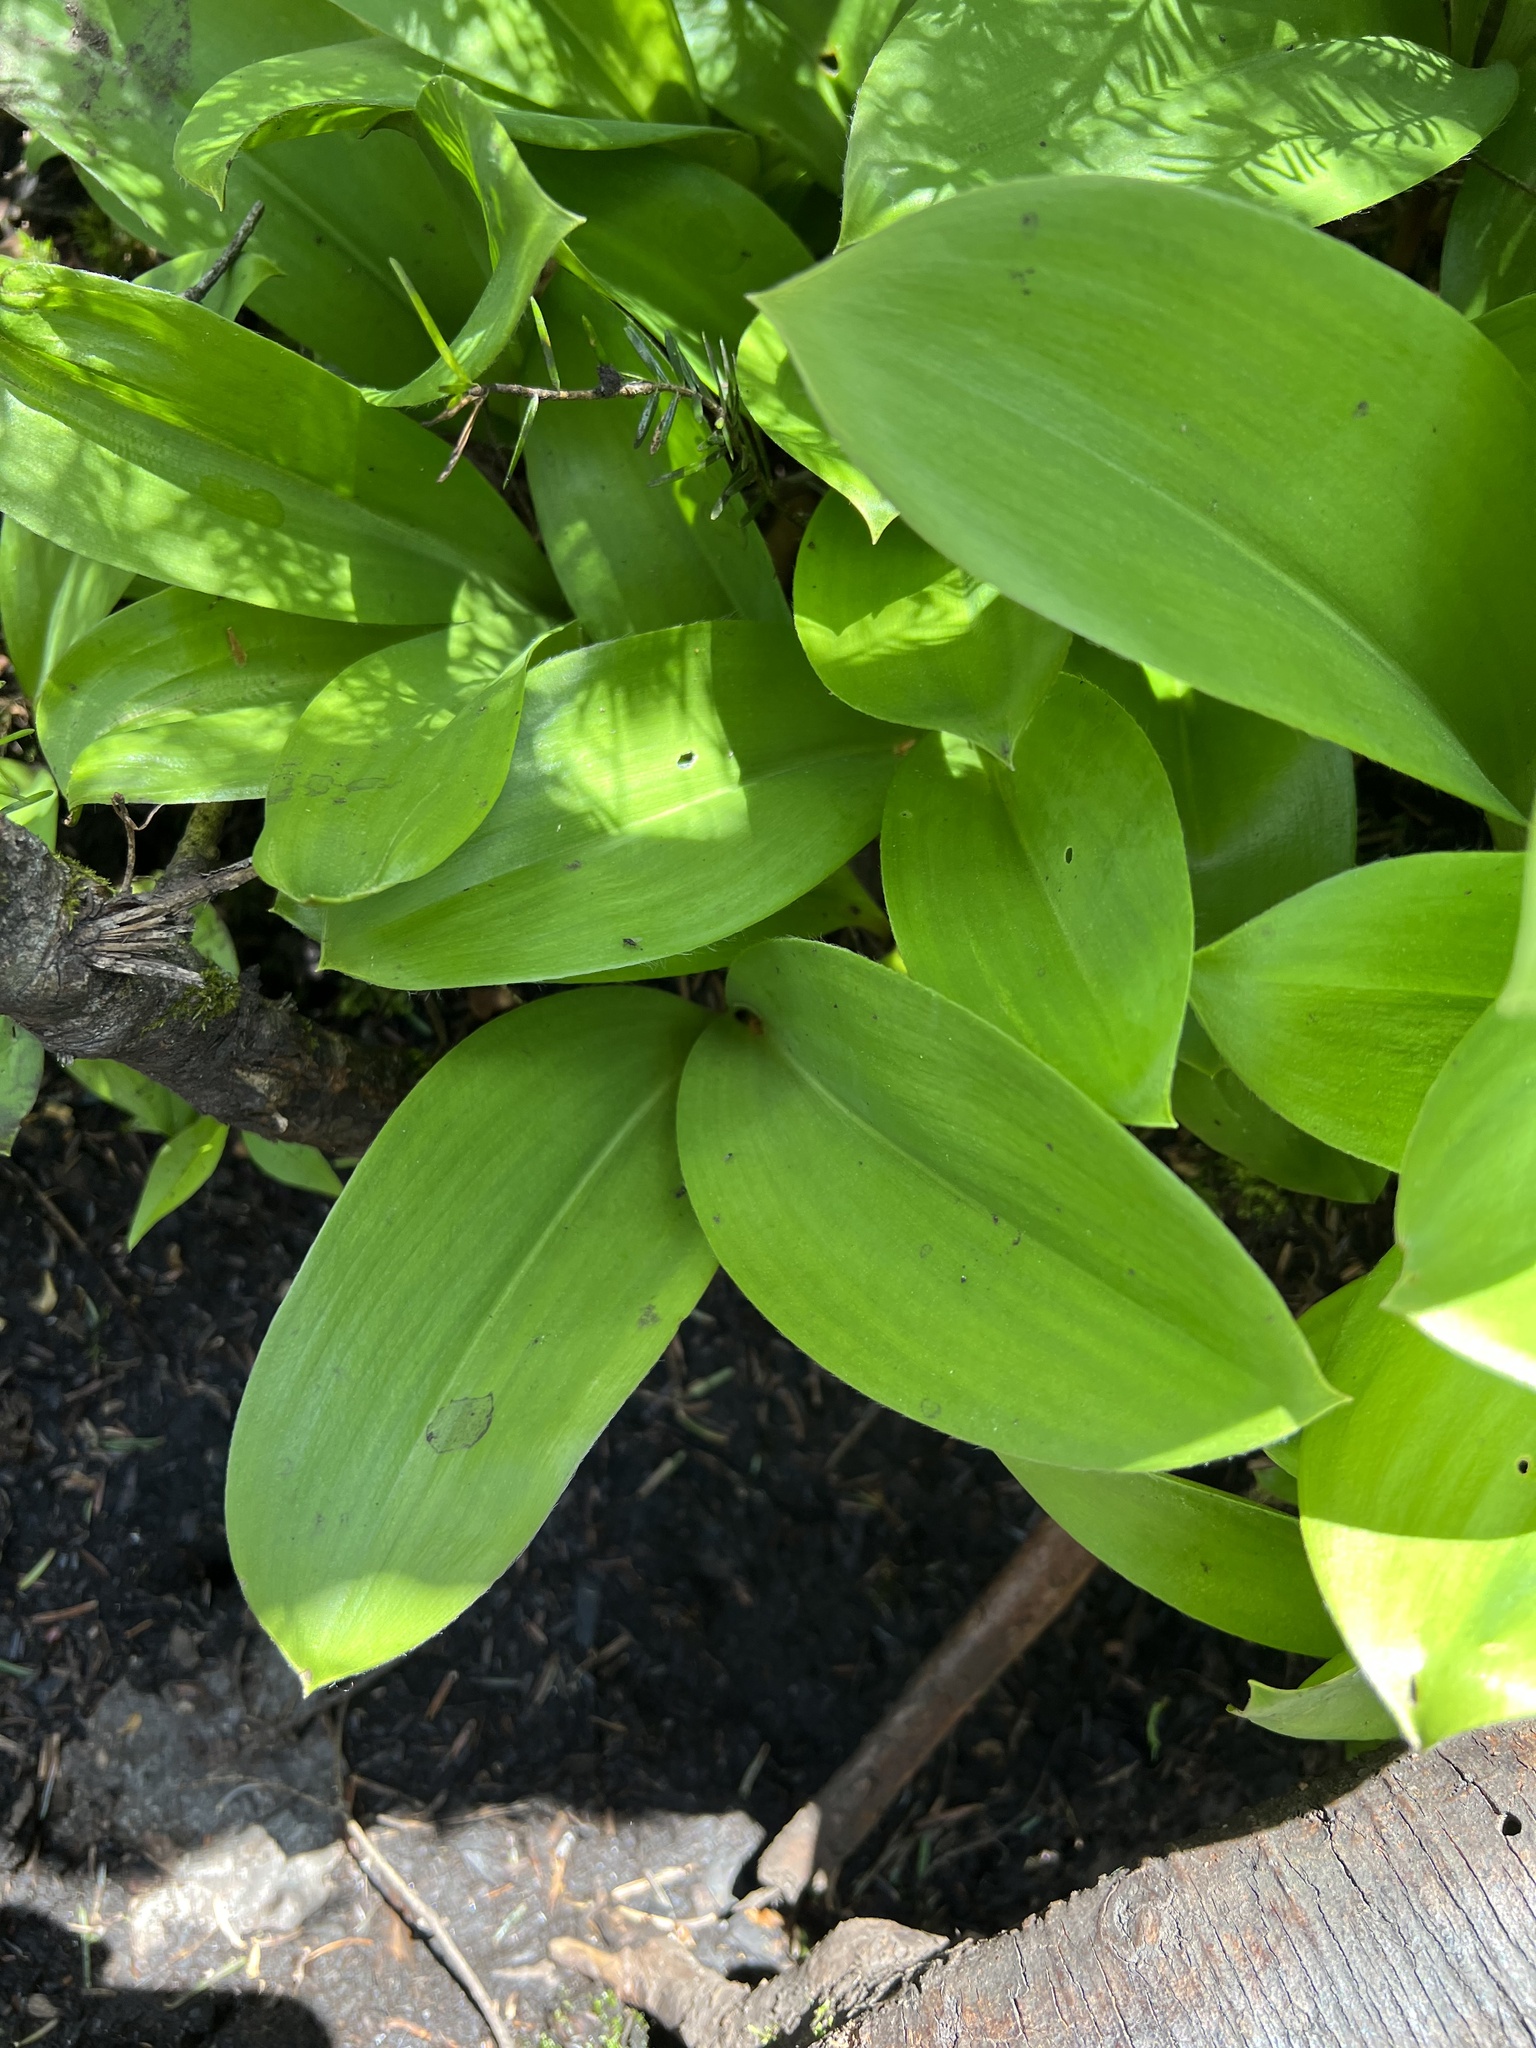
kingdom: Plantae
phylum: Tracheophyta
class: Liliopsida
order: Liliales
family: Liliaceae
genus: Clintonia
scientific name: Clintonia borealis
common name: Yellow clintonia
